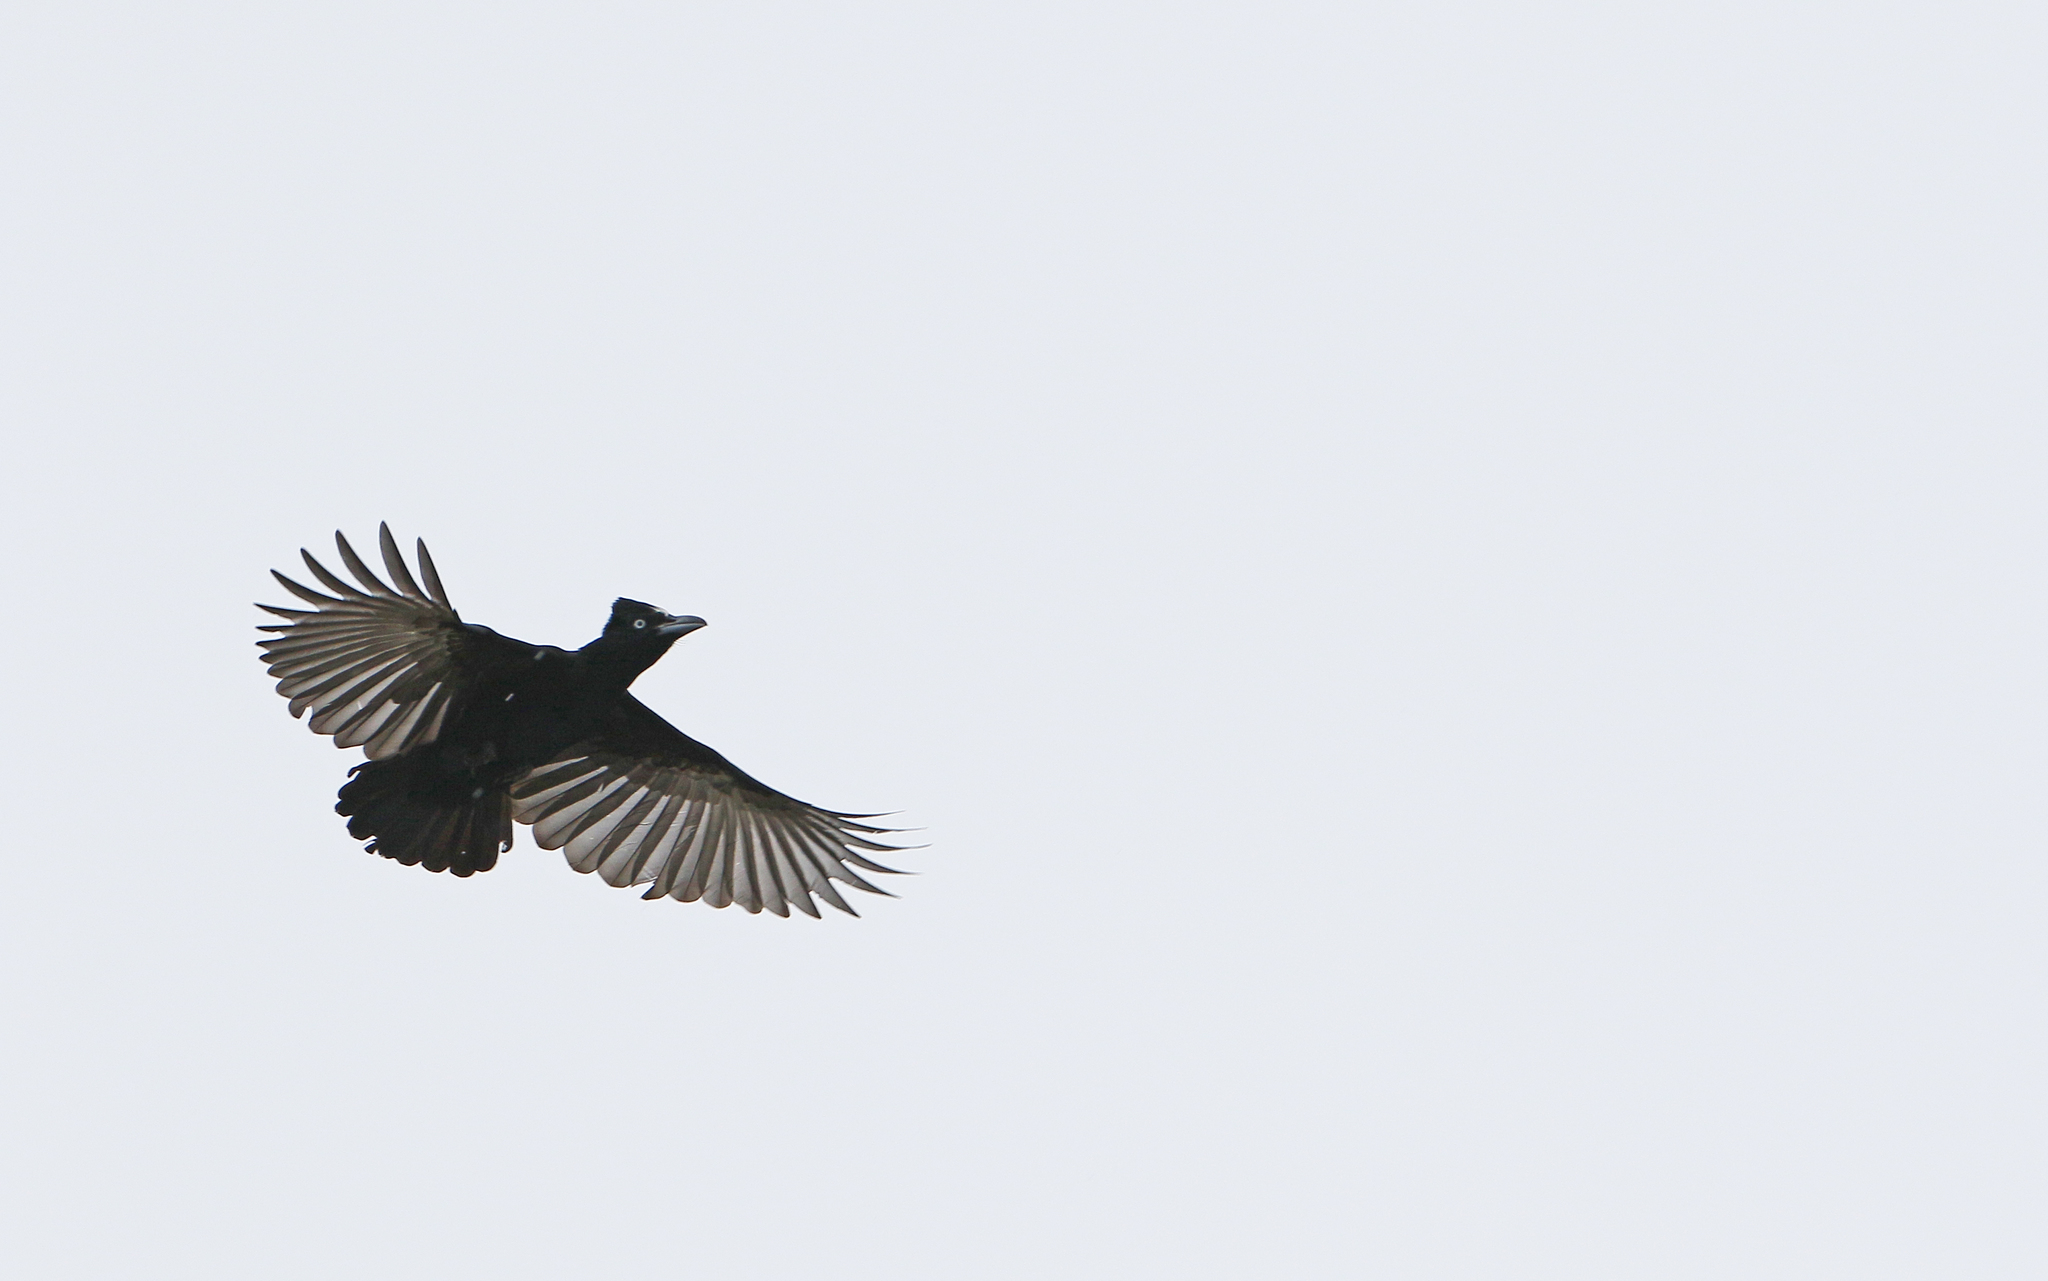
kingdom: Animalia
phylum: Chordata
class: Aves
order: Passeriformes
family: Cotingidae
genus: Cephalopterus
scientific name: Cephalopterus ornatus
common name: Amazonian umbrellabird
